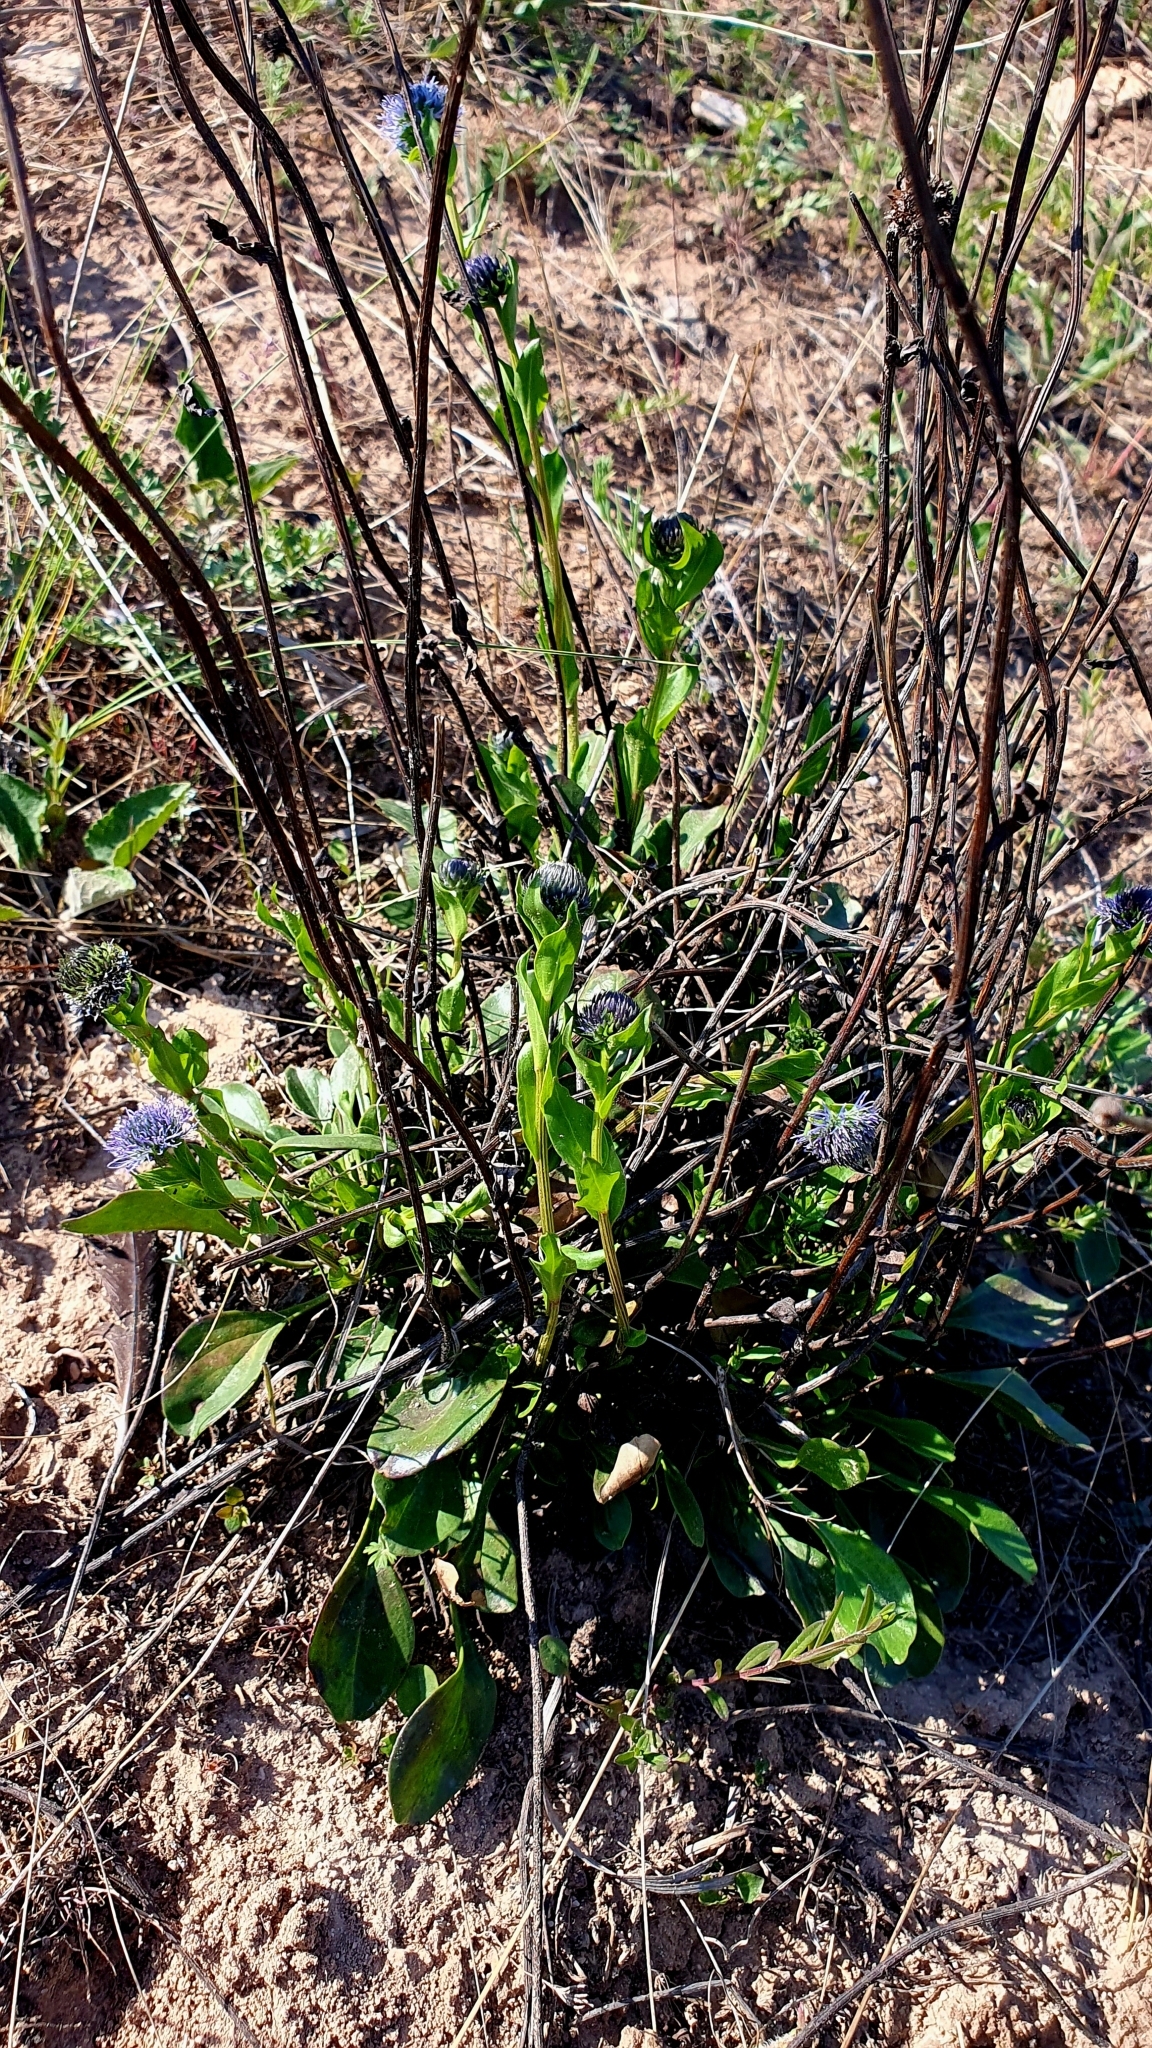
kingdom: Plantae
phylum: Tracheophyta
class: Magnoliopsida
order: Lamiales
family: Plantaginaceae
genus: Globularia
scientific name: Globularia bisnagarica
